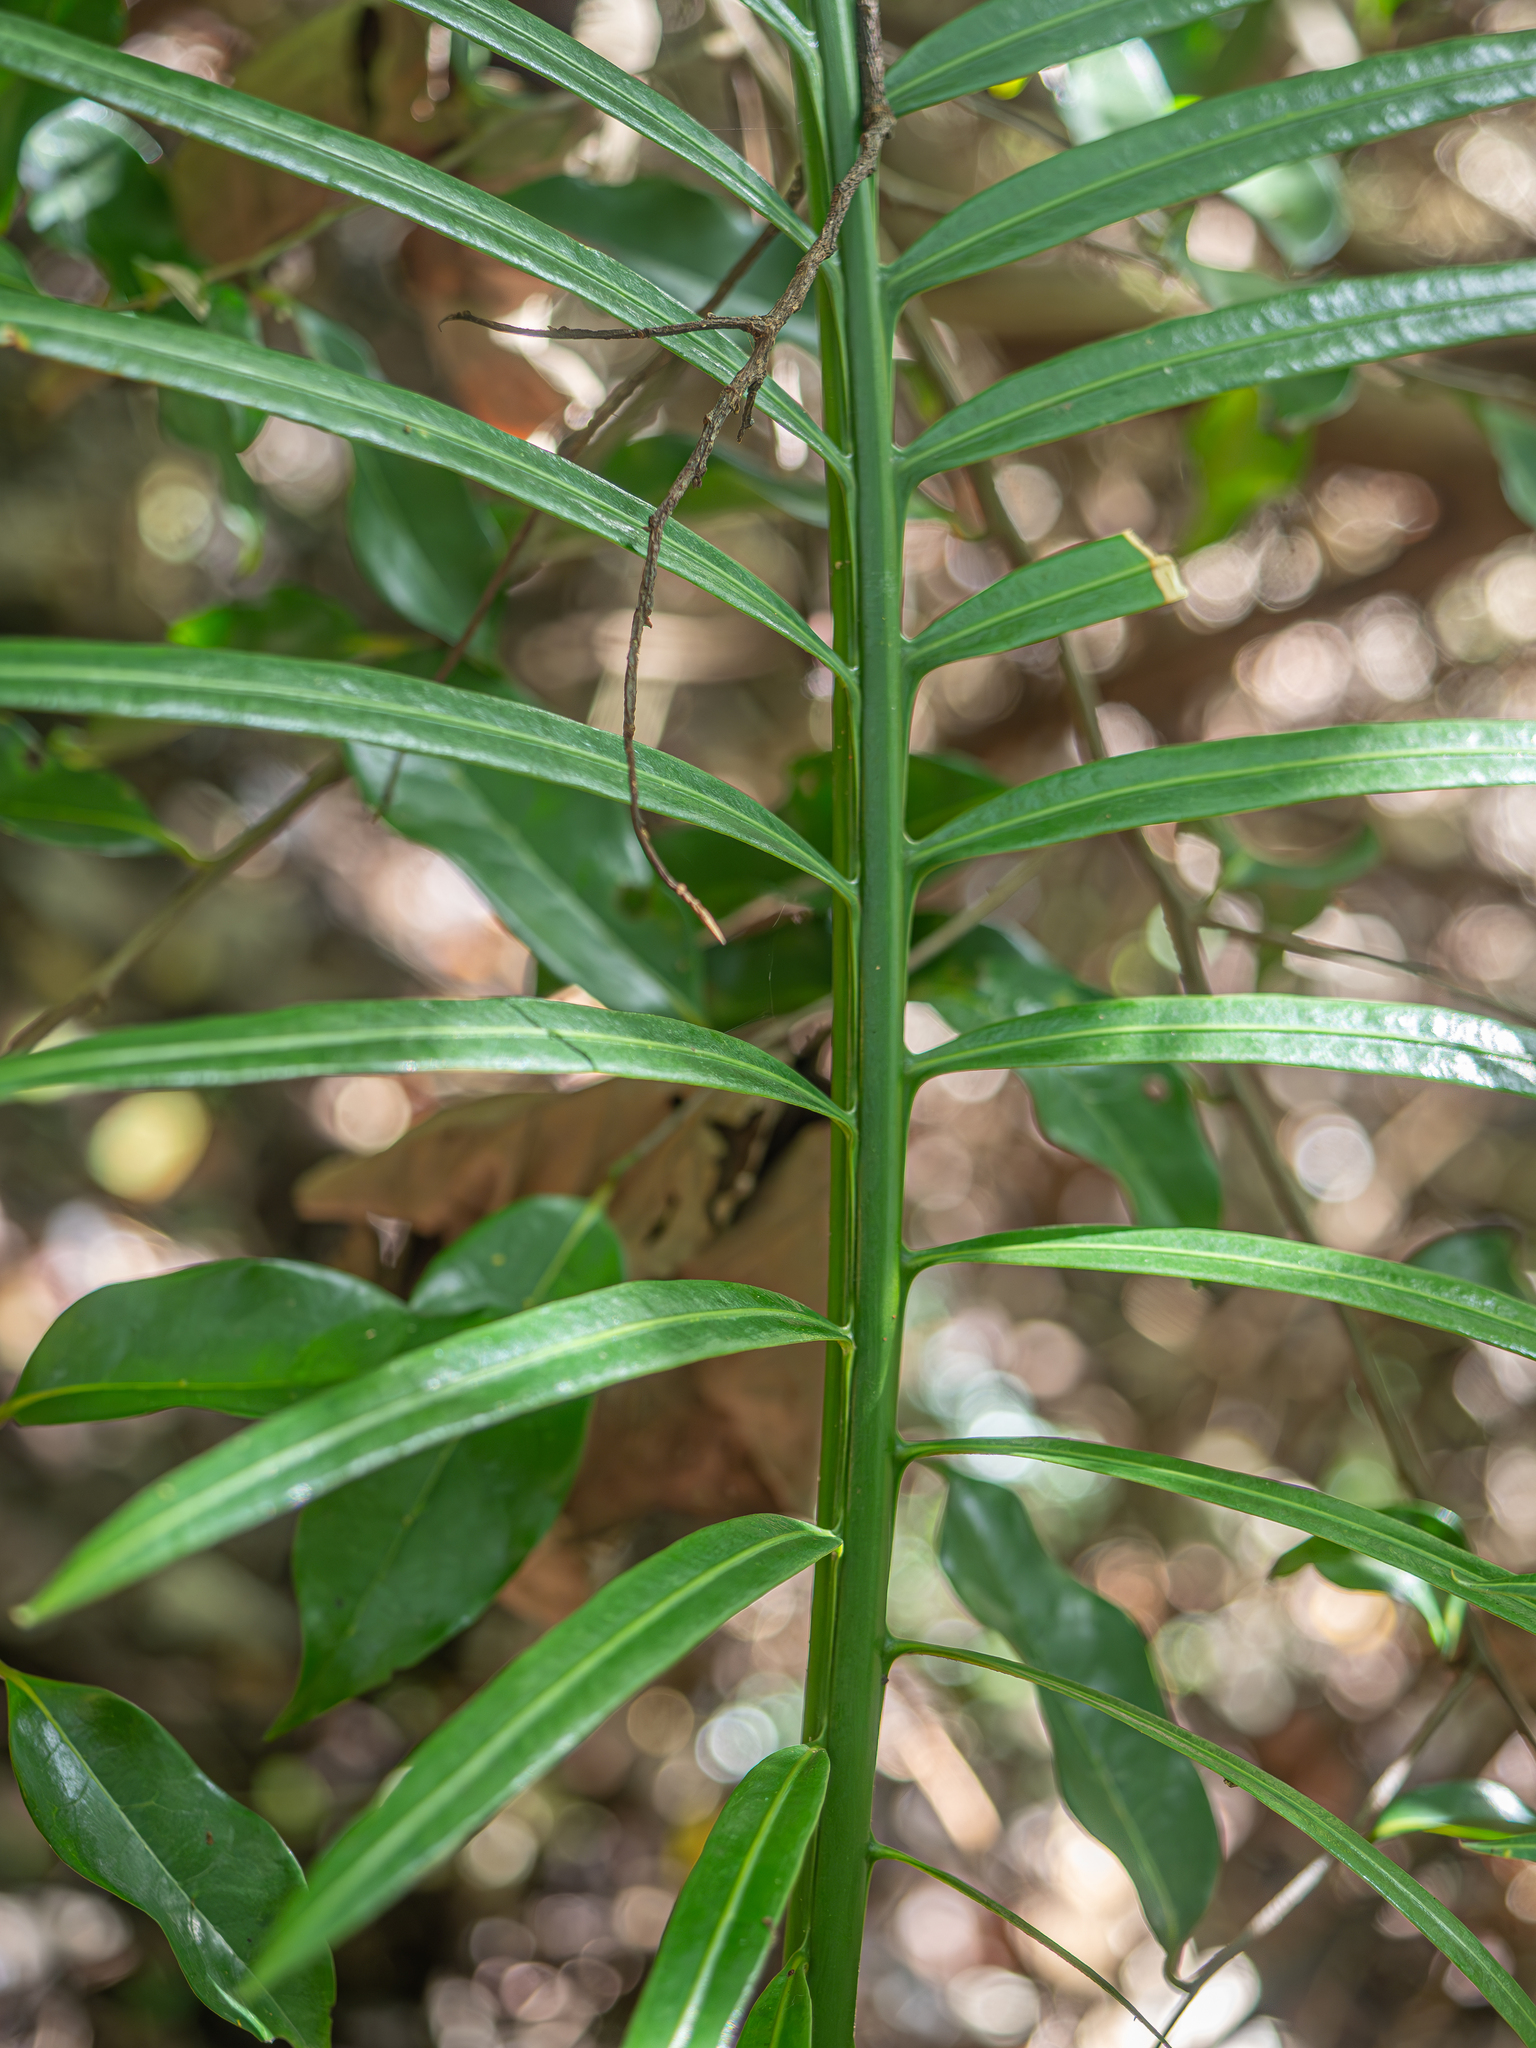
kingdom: Plantae
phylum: Tracheophyta
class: Cycadopsida
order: Cycadales
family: Cycadaceae
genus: Cycas
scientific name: Cycas seemannii
